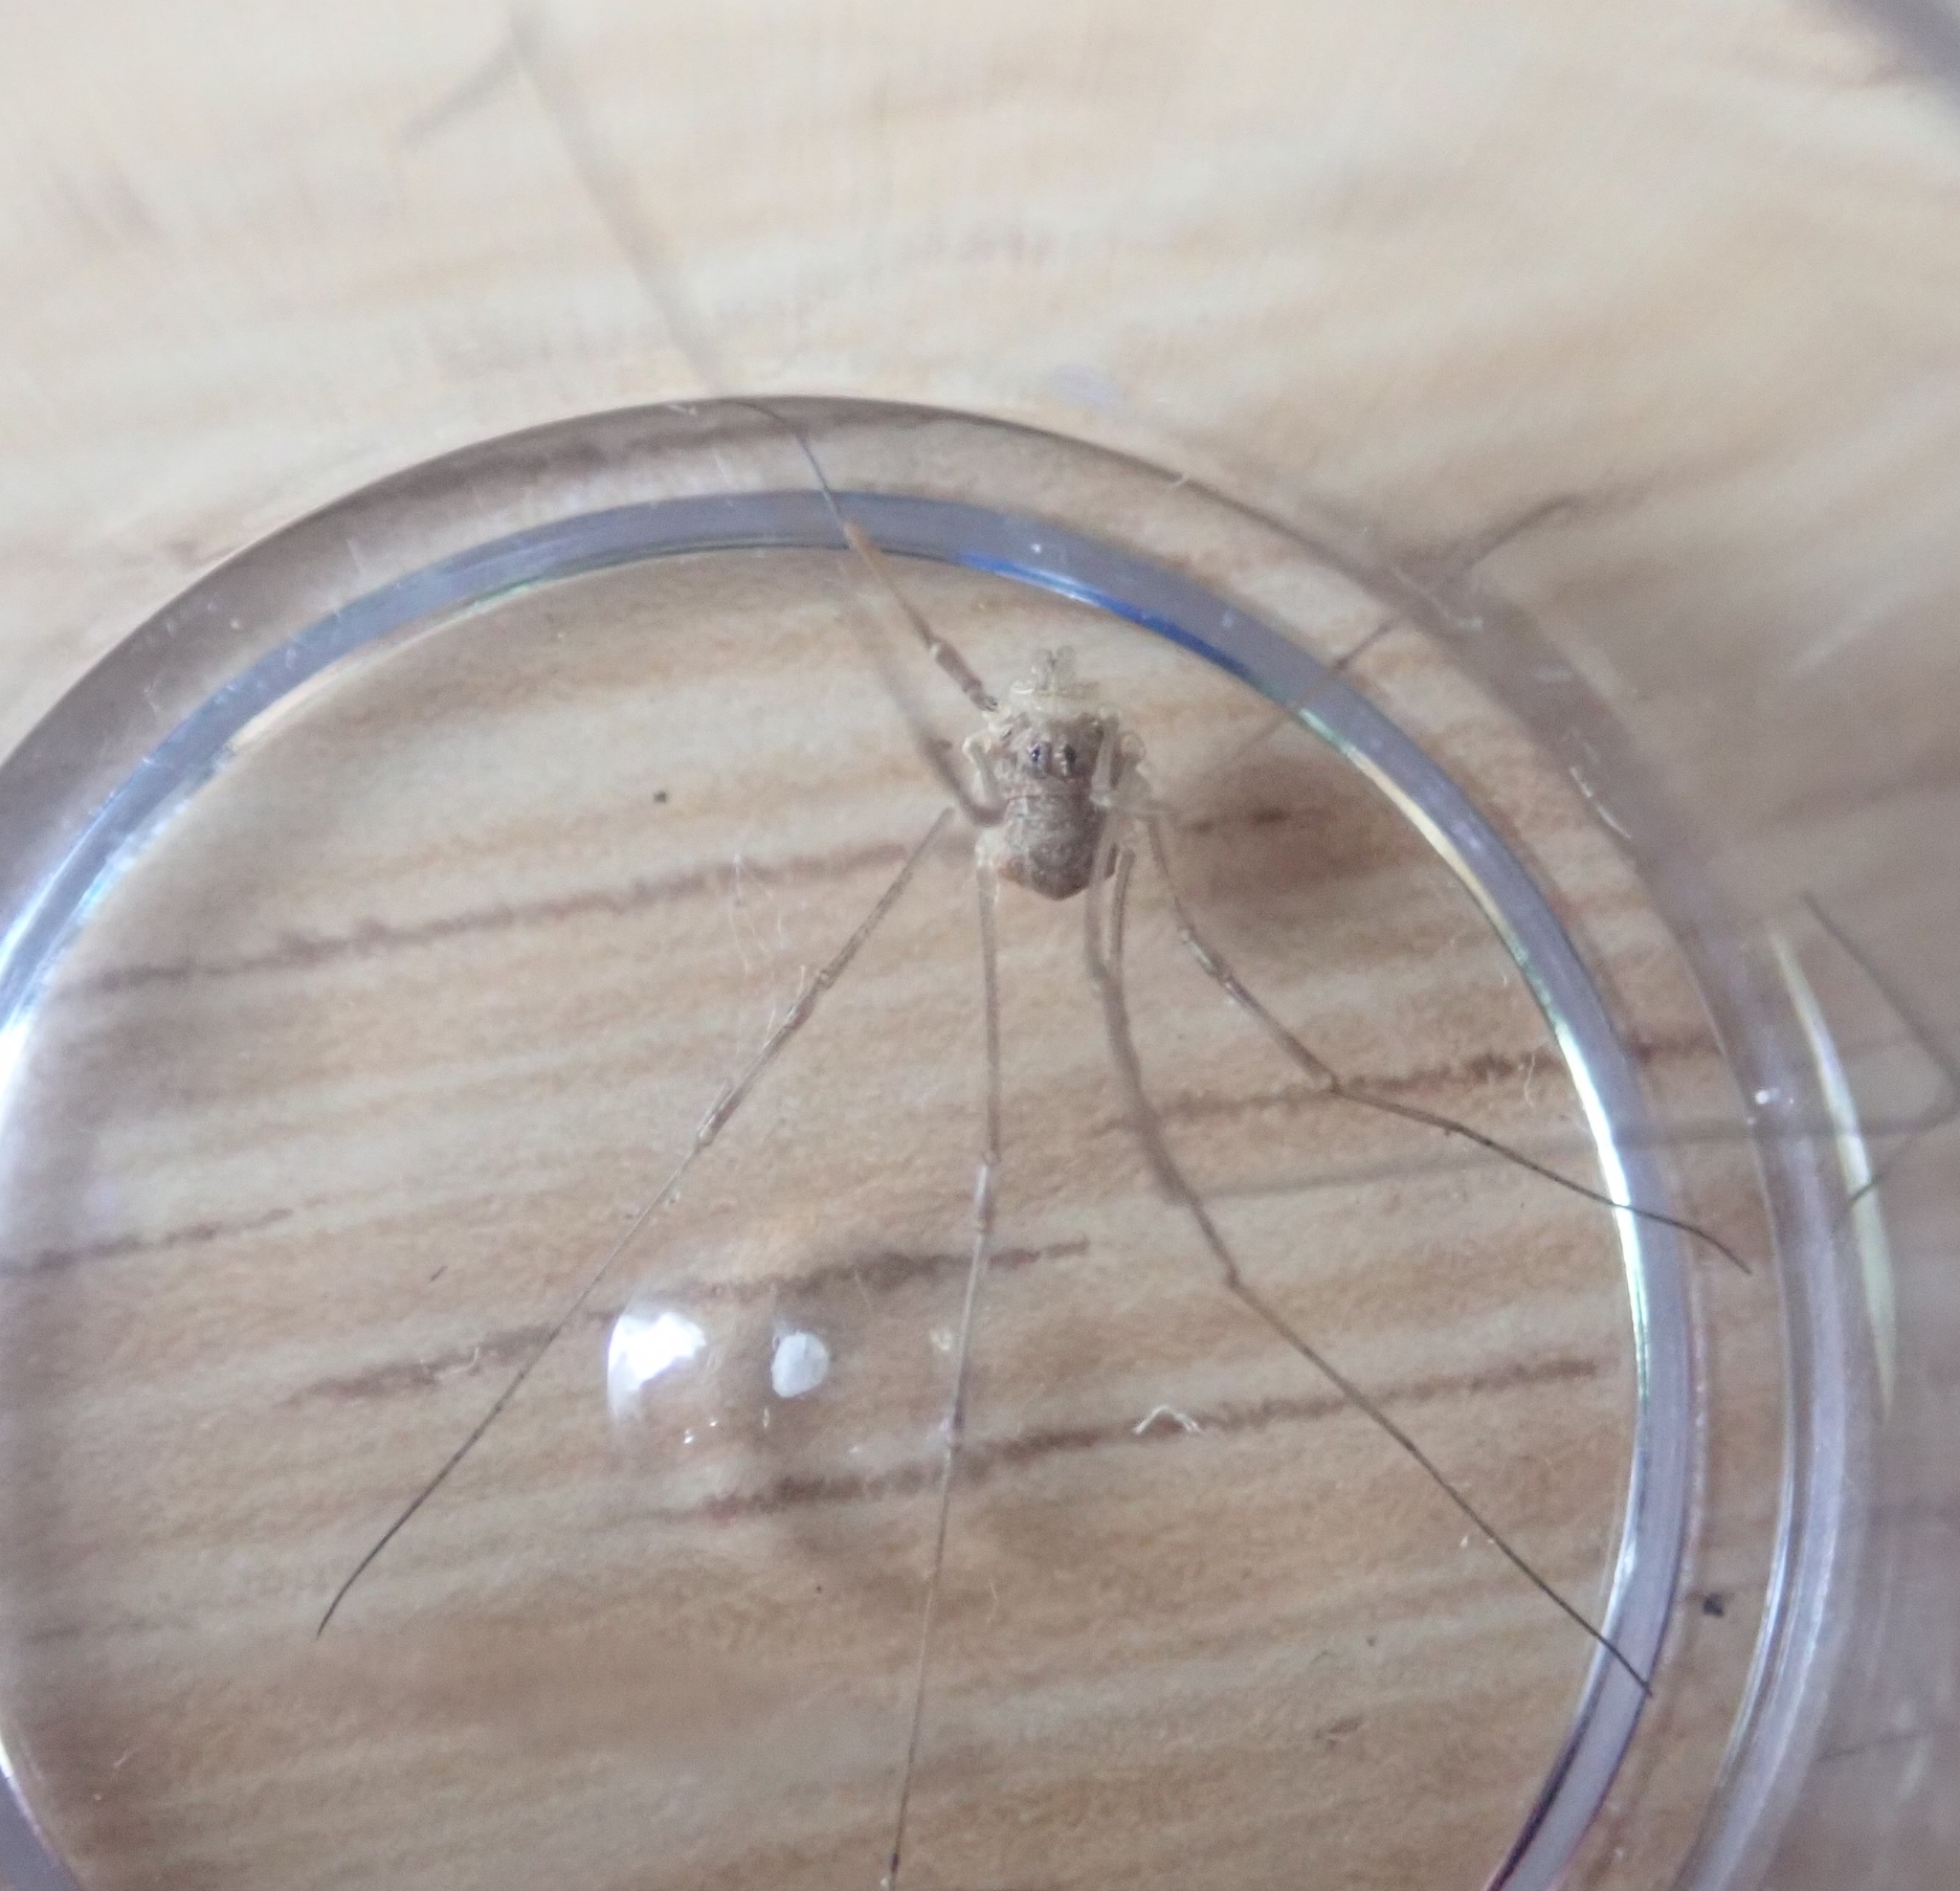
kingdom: Animalia
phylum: Arthropoda
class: Arachnida
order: Opiliones
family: Phalangiidae
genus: Rilaena
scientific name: Rilaena triangularis
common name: Spring harvestman
